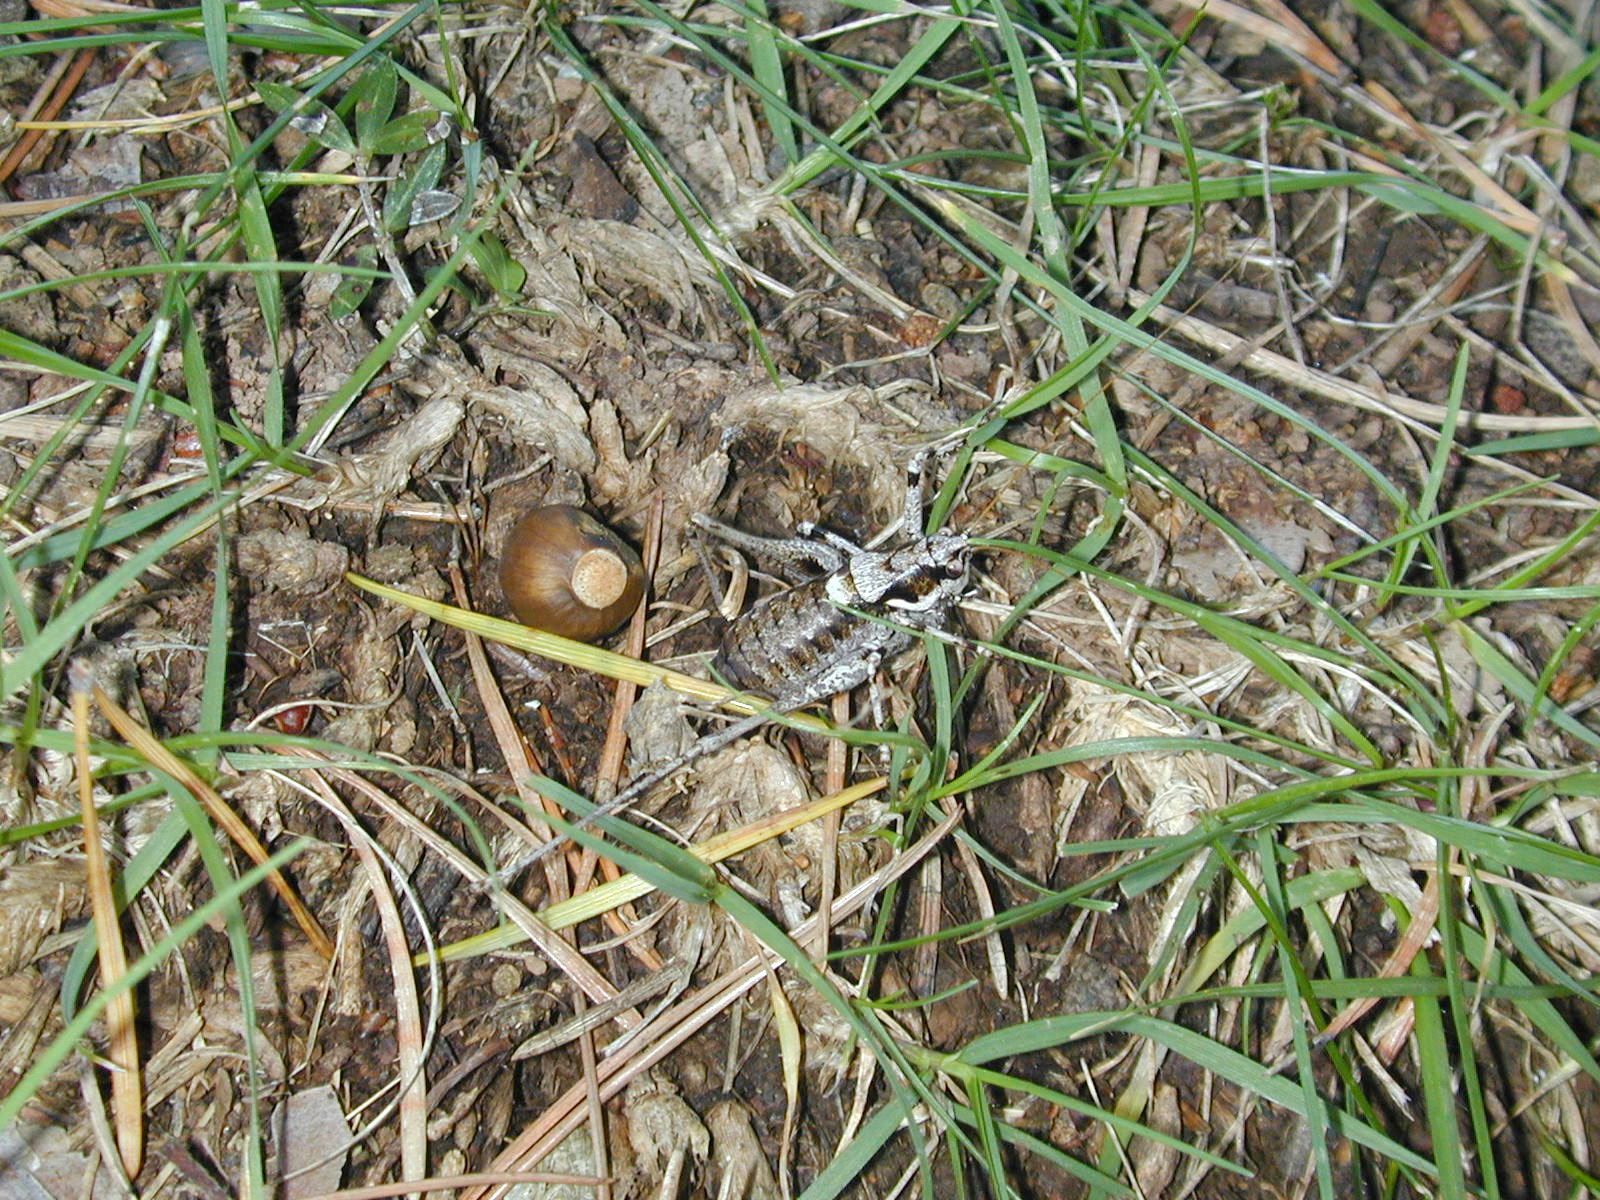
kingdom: Animalia
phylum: Arthropoda
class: Insecta
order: Orthoptera
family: Tettigoniidae
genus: Antaxius
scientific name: Antaxius pedestris
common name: Common mountain bush-cricket
